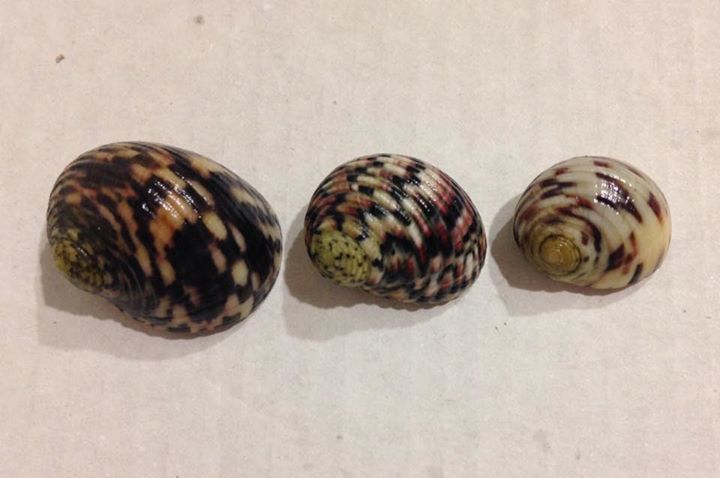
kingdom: Animalia
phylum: Mollusca
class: Gastropoda
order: Cycloneritida
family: Neritidae
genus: Nerita
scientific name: Nerita peloronta
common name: Bleeding tooth
